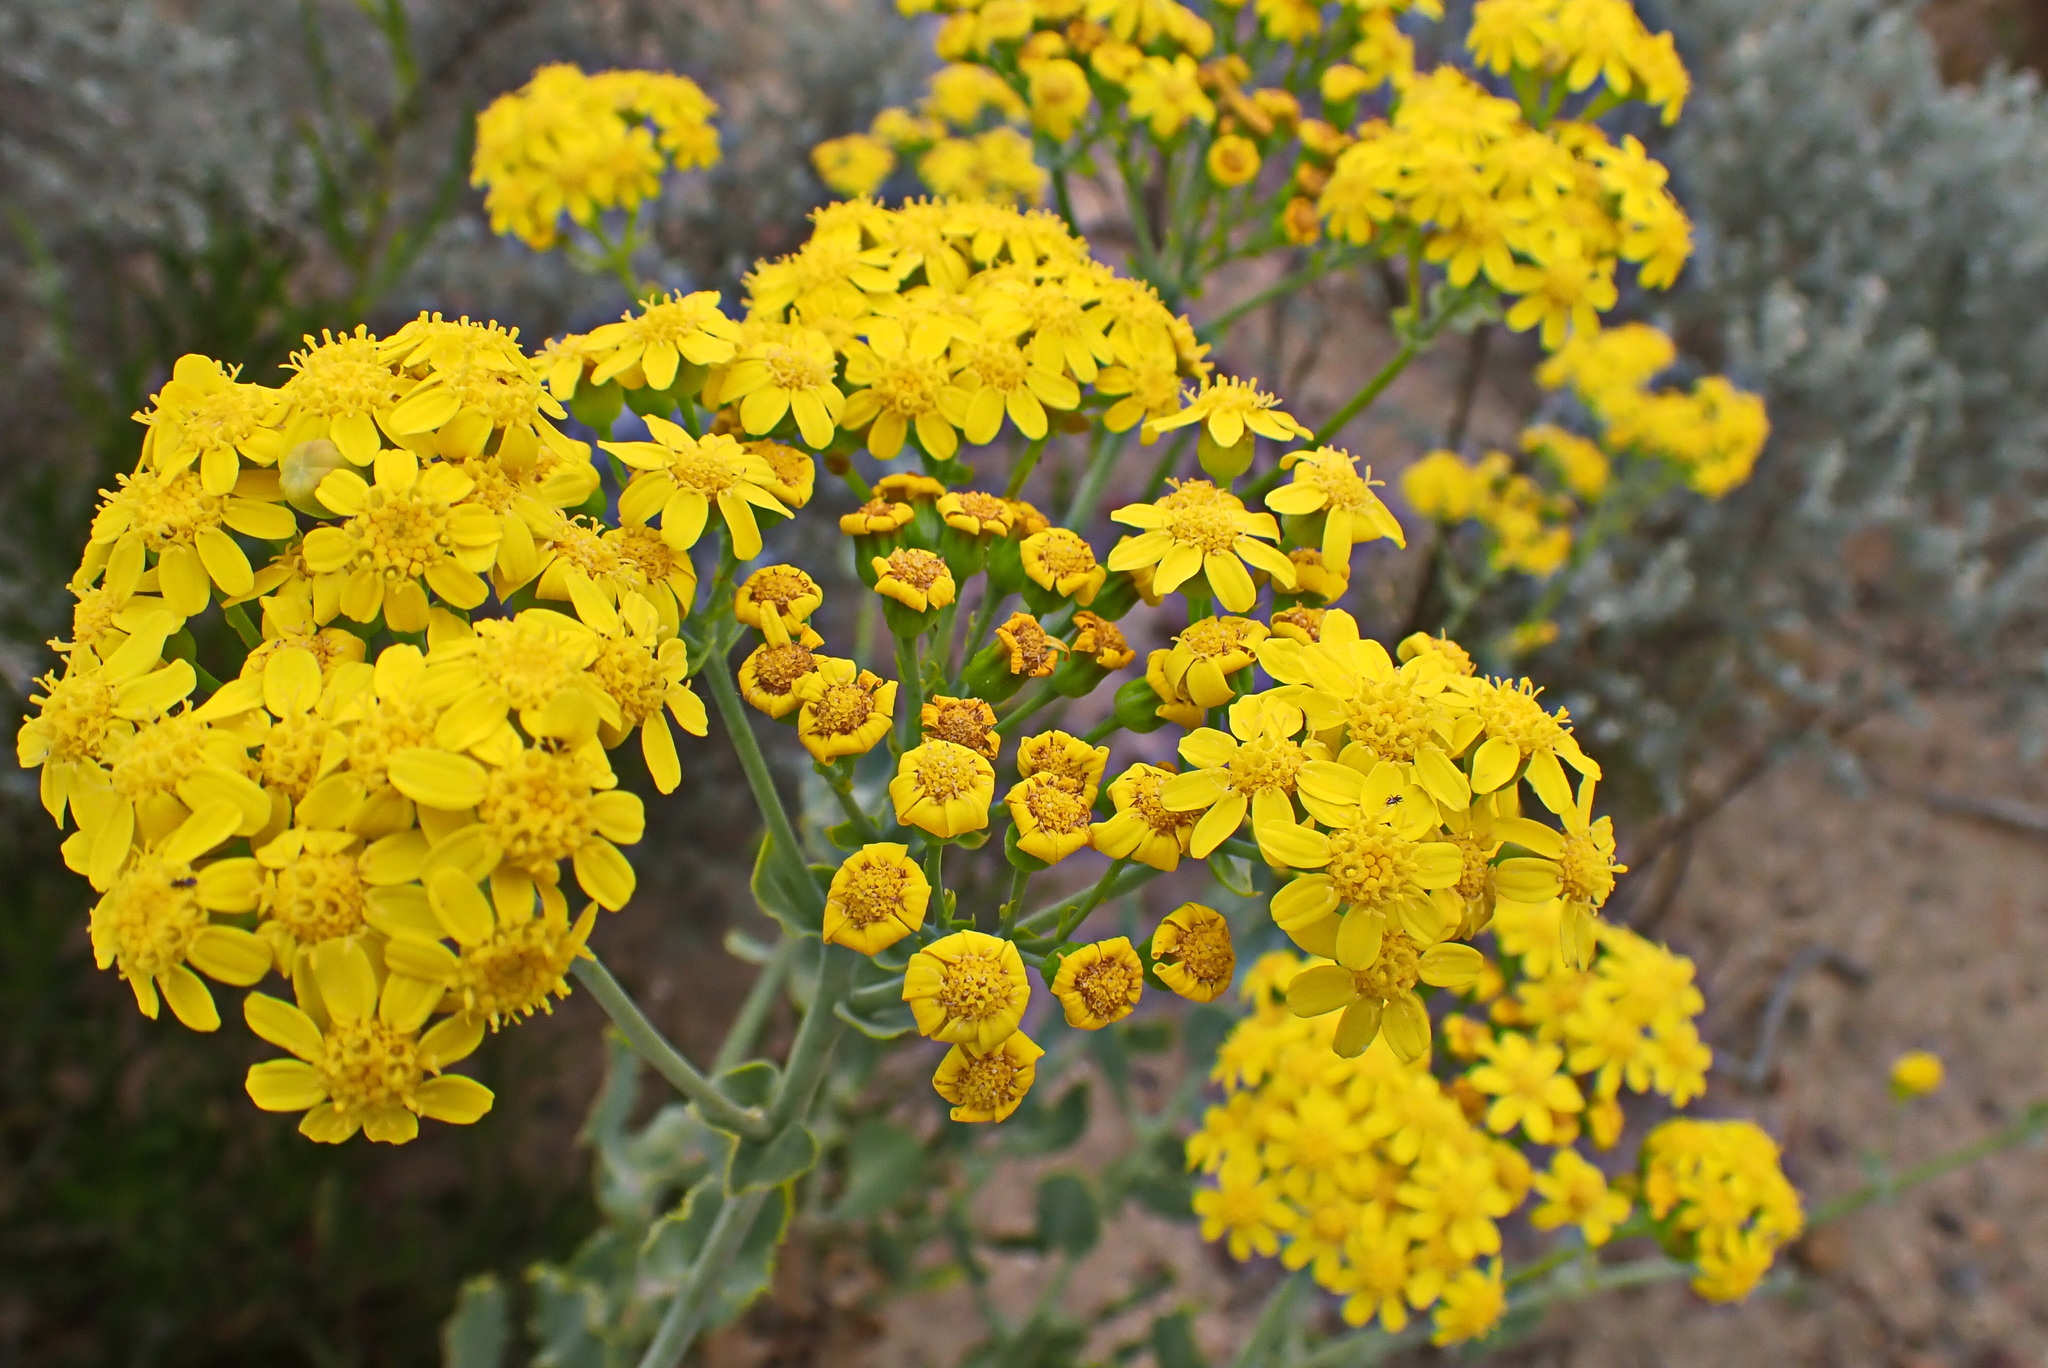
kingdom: Plantae
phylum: Tracheophyta
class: Magnoliopsida
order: Asterales
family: Asteraceae
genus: Othonna
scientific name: Othonna parviflora
